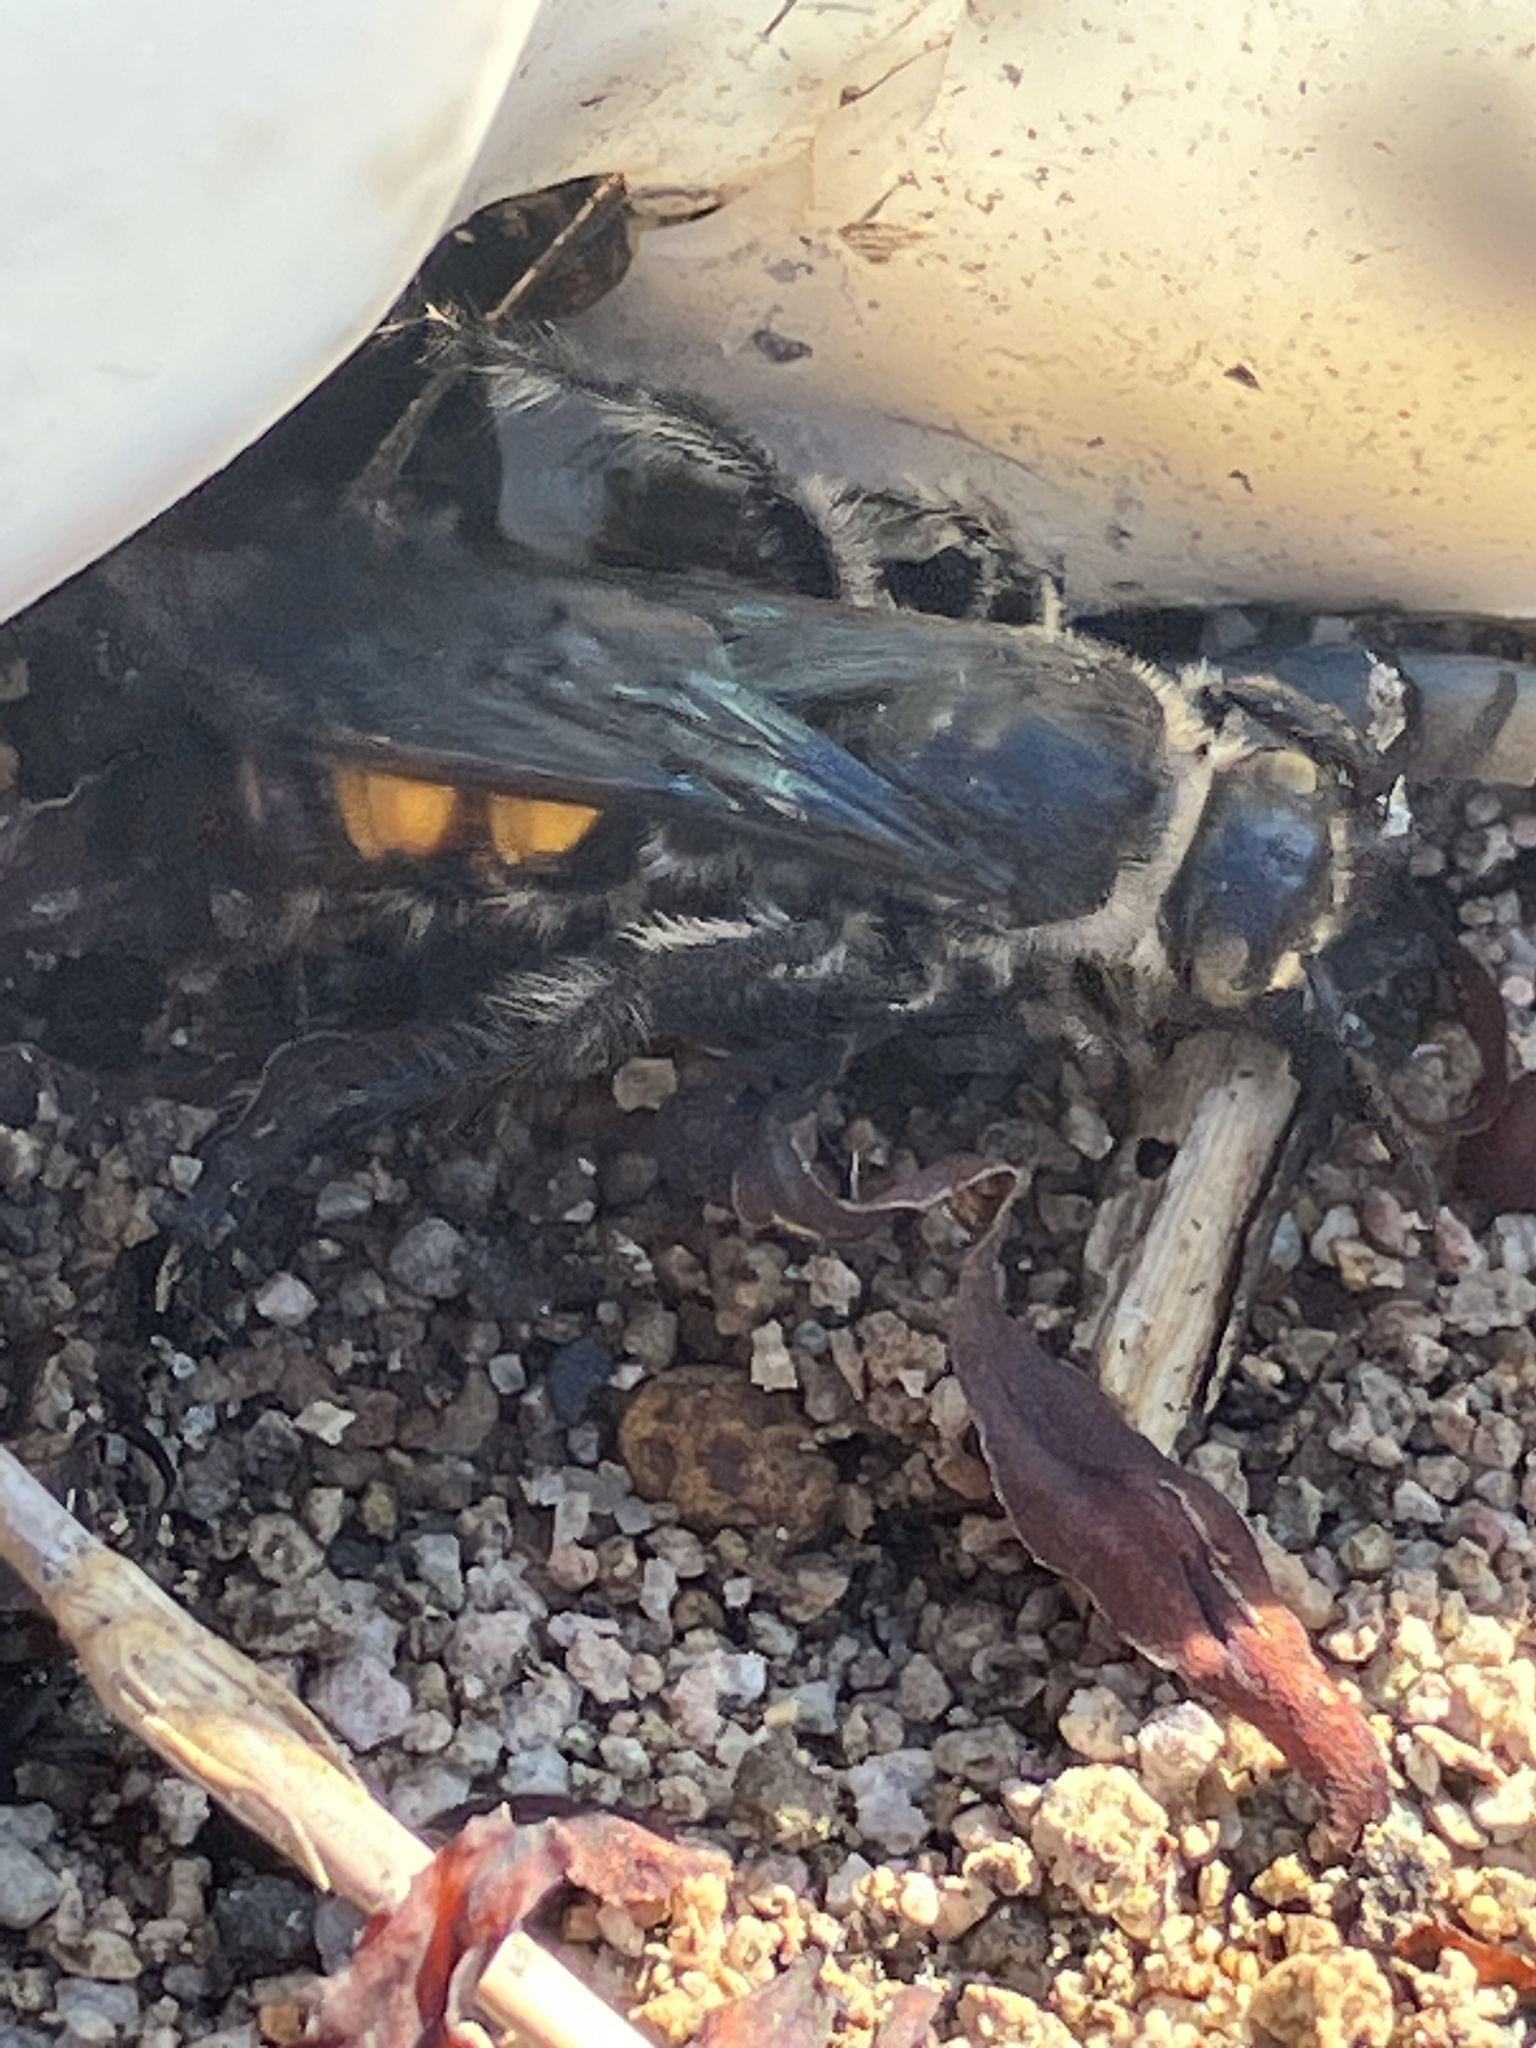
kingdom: Animalia
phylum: Arthropoda
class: Insecta
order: Hymenoptera
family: Scoliidae
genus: Dielis
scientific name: Dielis dorsata
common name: Scoliid wasp
